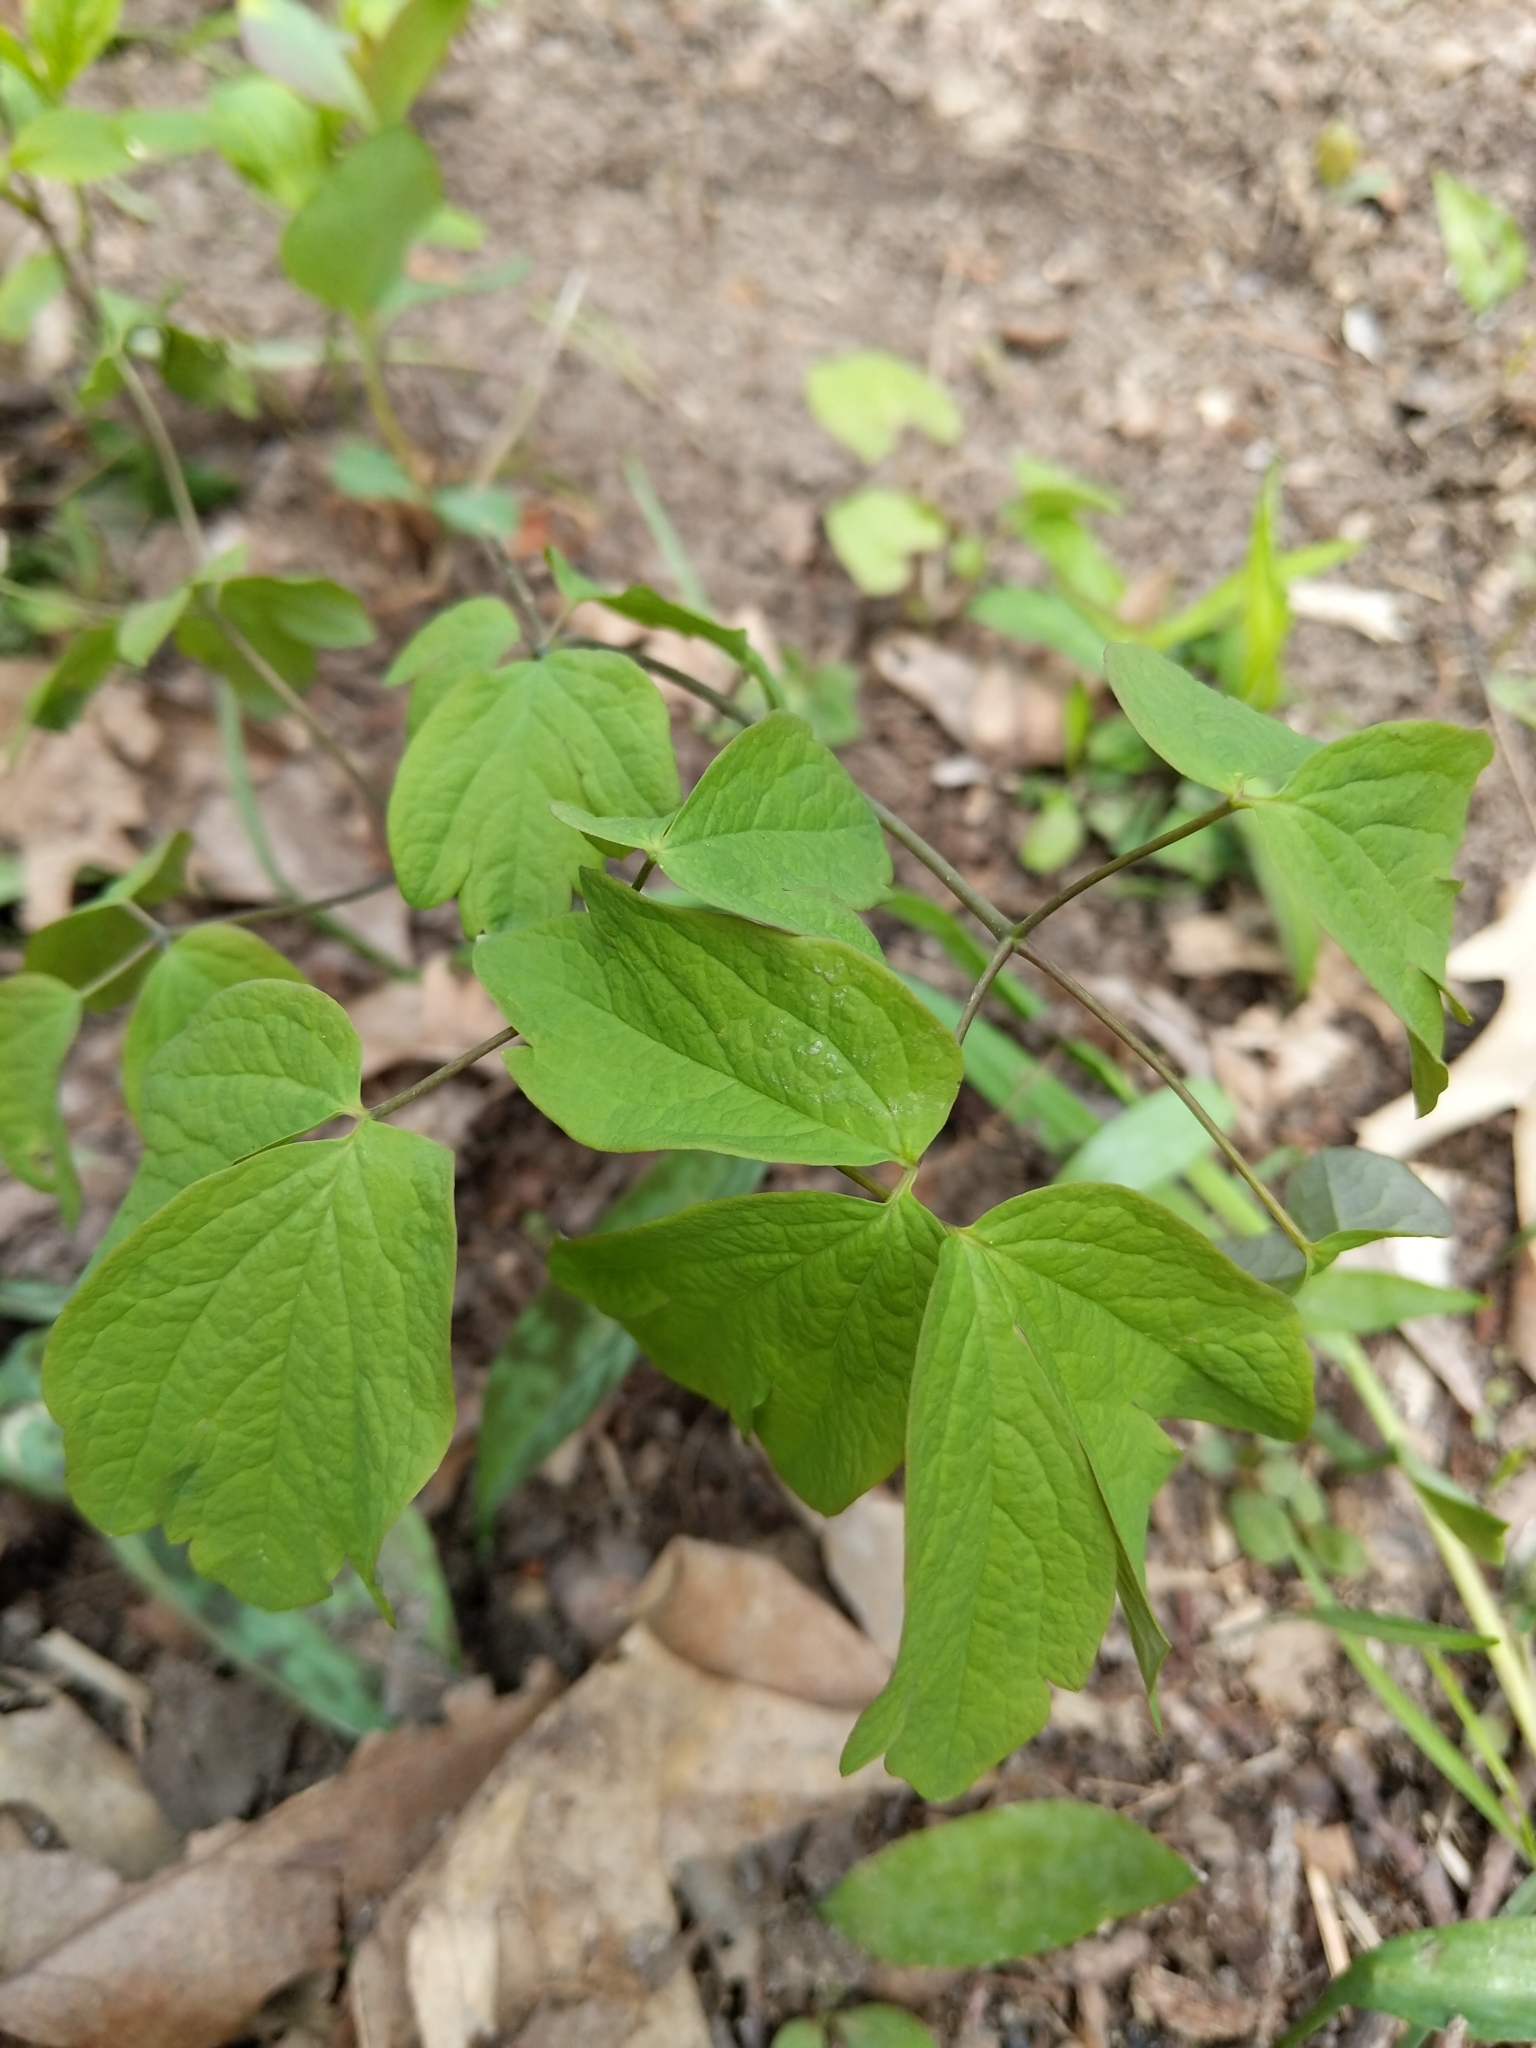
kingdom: Plantae
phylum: Tracheophyta
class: Magnoliopsida
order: Ranunculales
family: Berberidaceae
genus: Caulophyllum
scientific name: Caulophyllum thalictroides
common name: Blue cohosh
